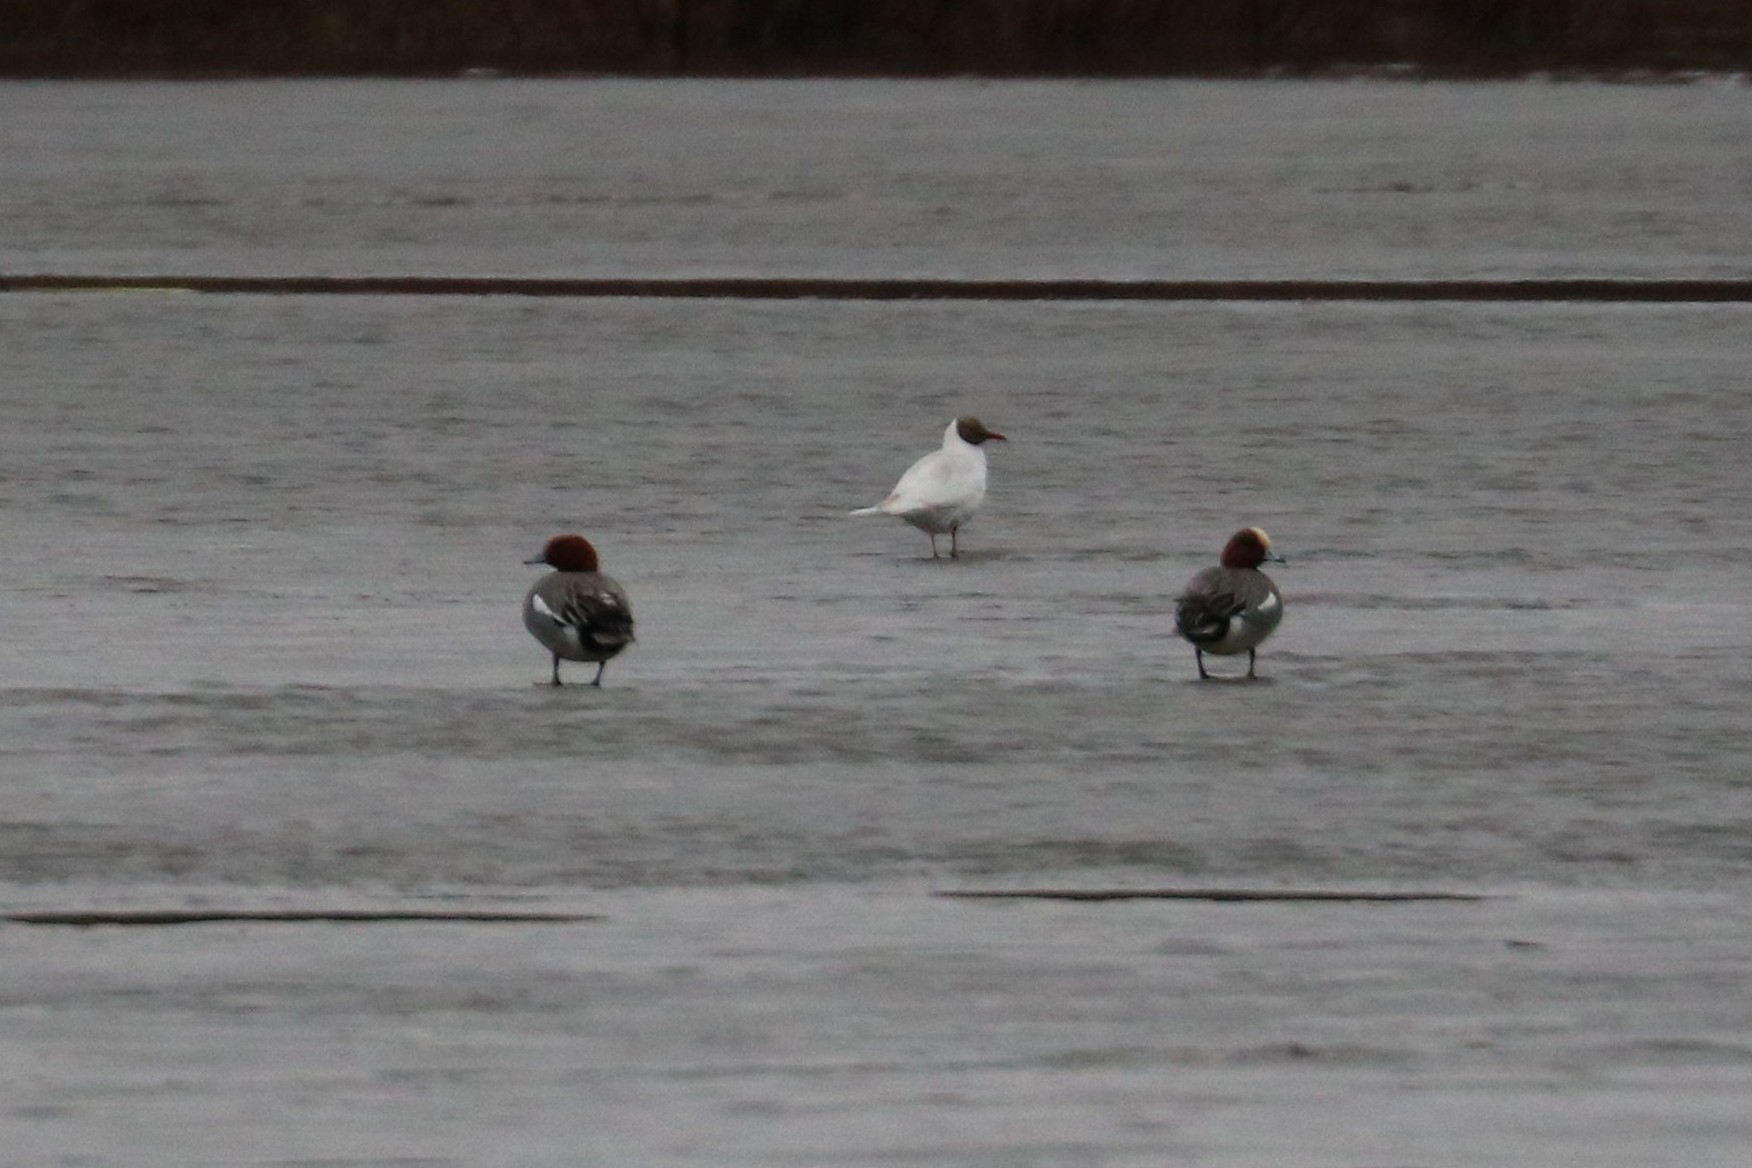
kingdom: Animalia
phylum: Chordata
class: Aves
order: Anseriformes
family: Anatidae
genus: Mareca
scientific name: Mareca penelope
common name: Eurasian wigeon
